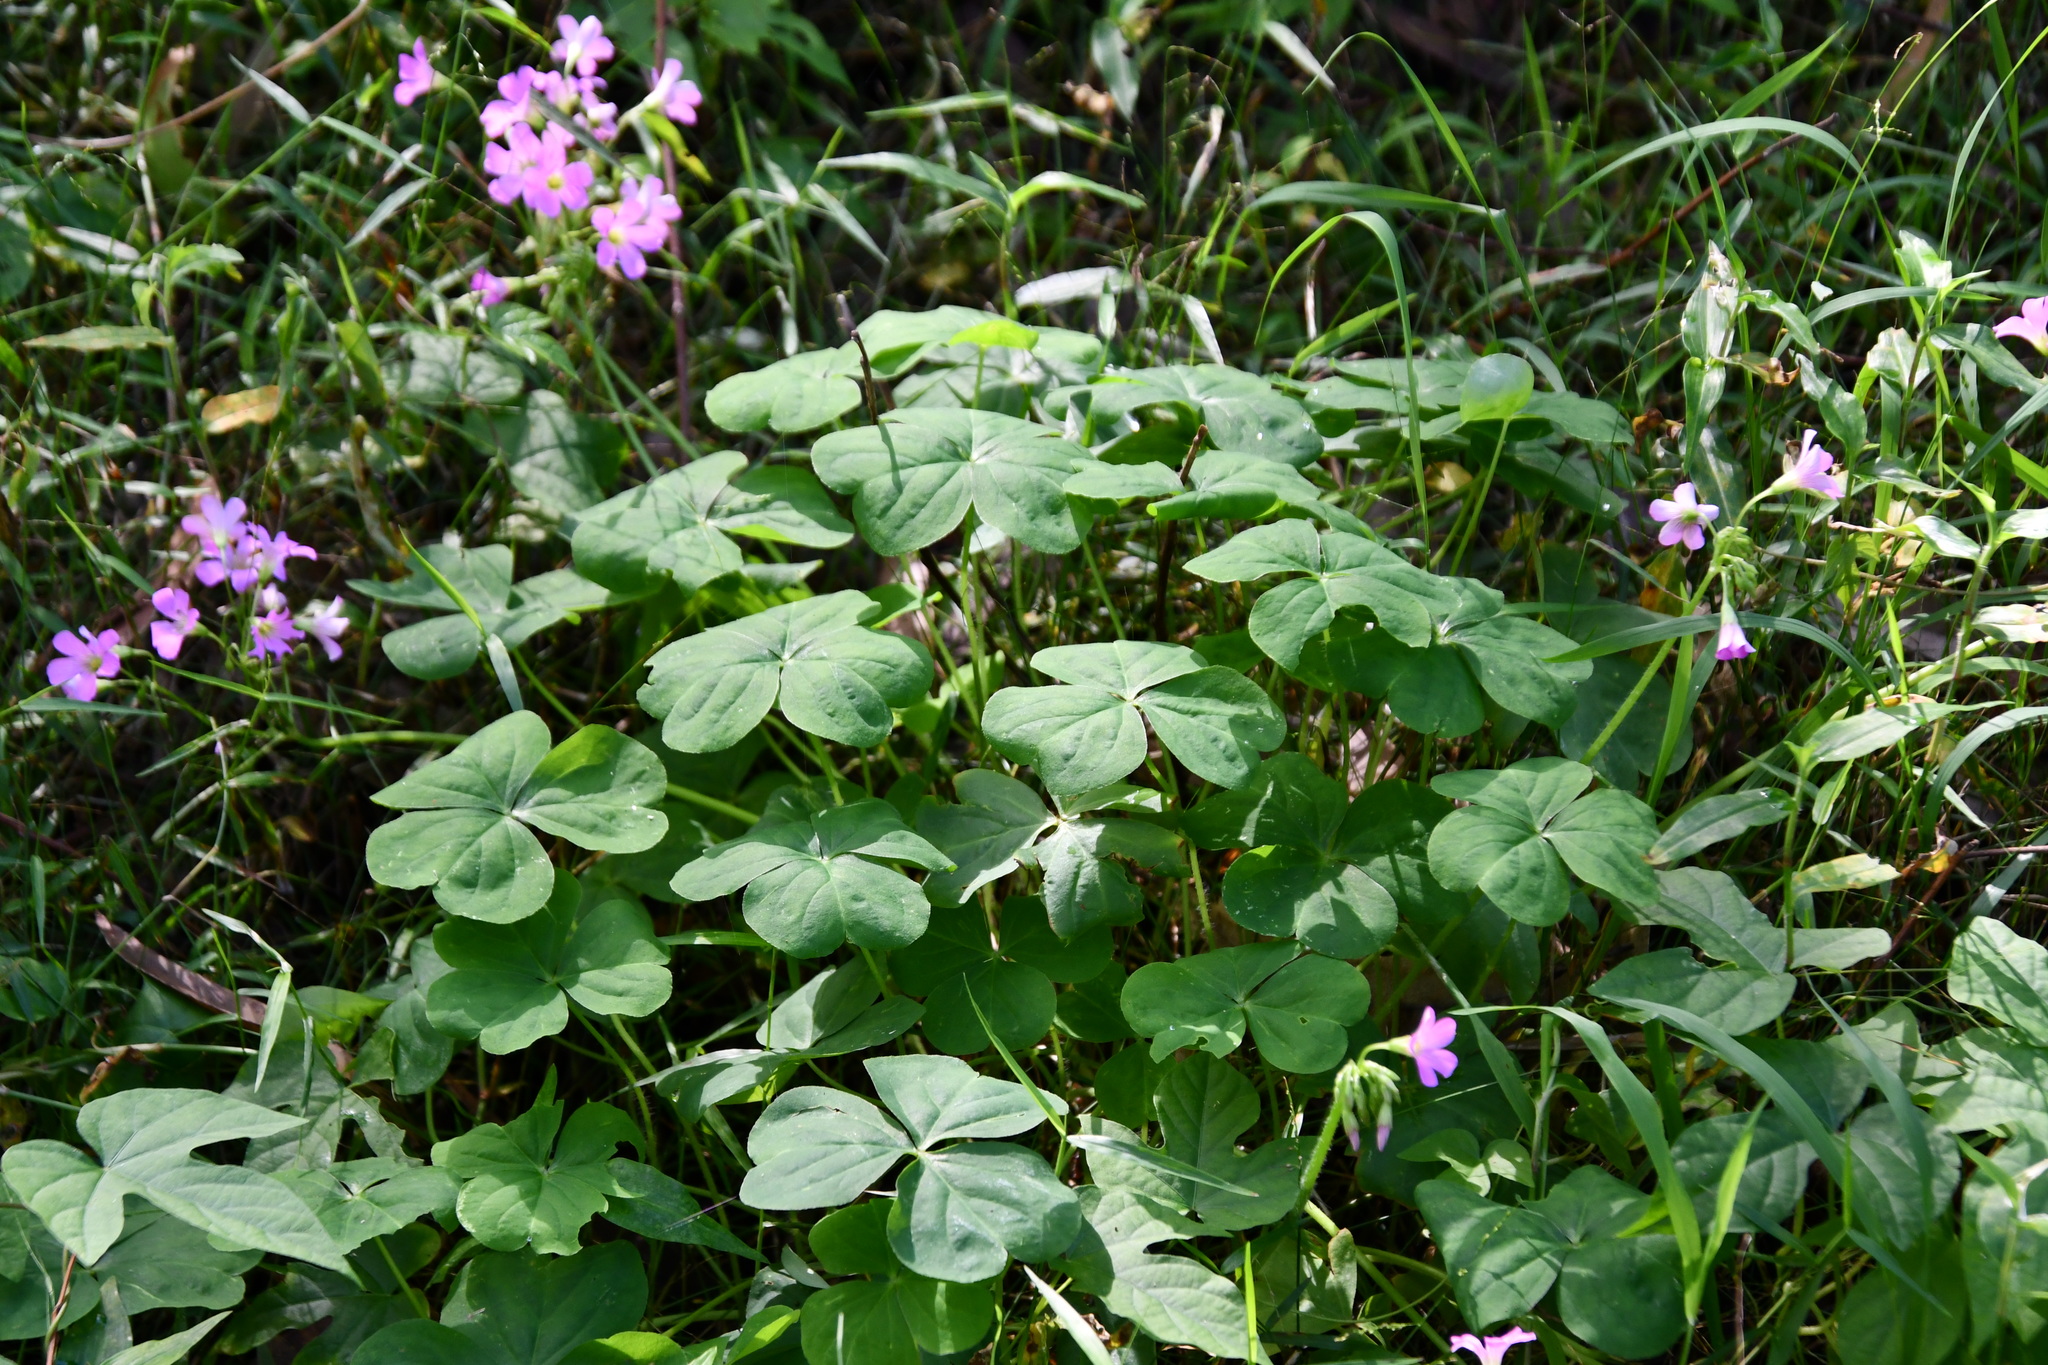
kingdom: Plantae
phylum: Tracheophyta
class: Magnoliopsida
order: Oxalidales
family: Oxalidaceae
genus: Oxalis
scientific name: Oxalis debilis
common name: Large-flowered pink-sorrel
